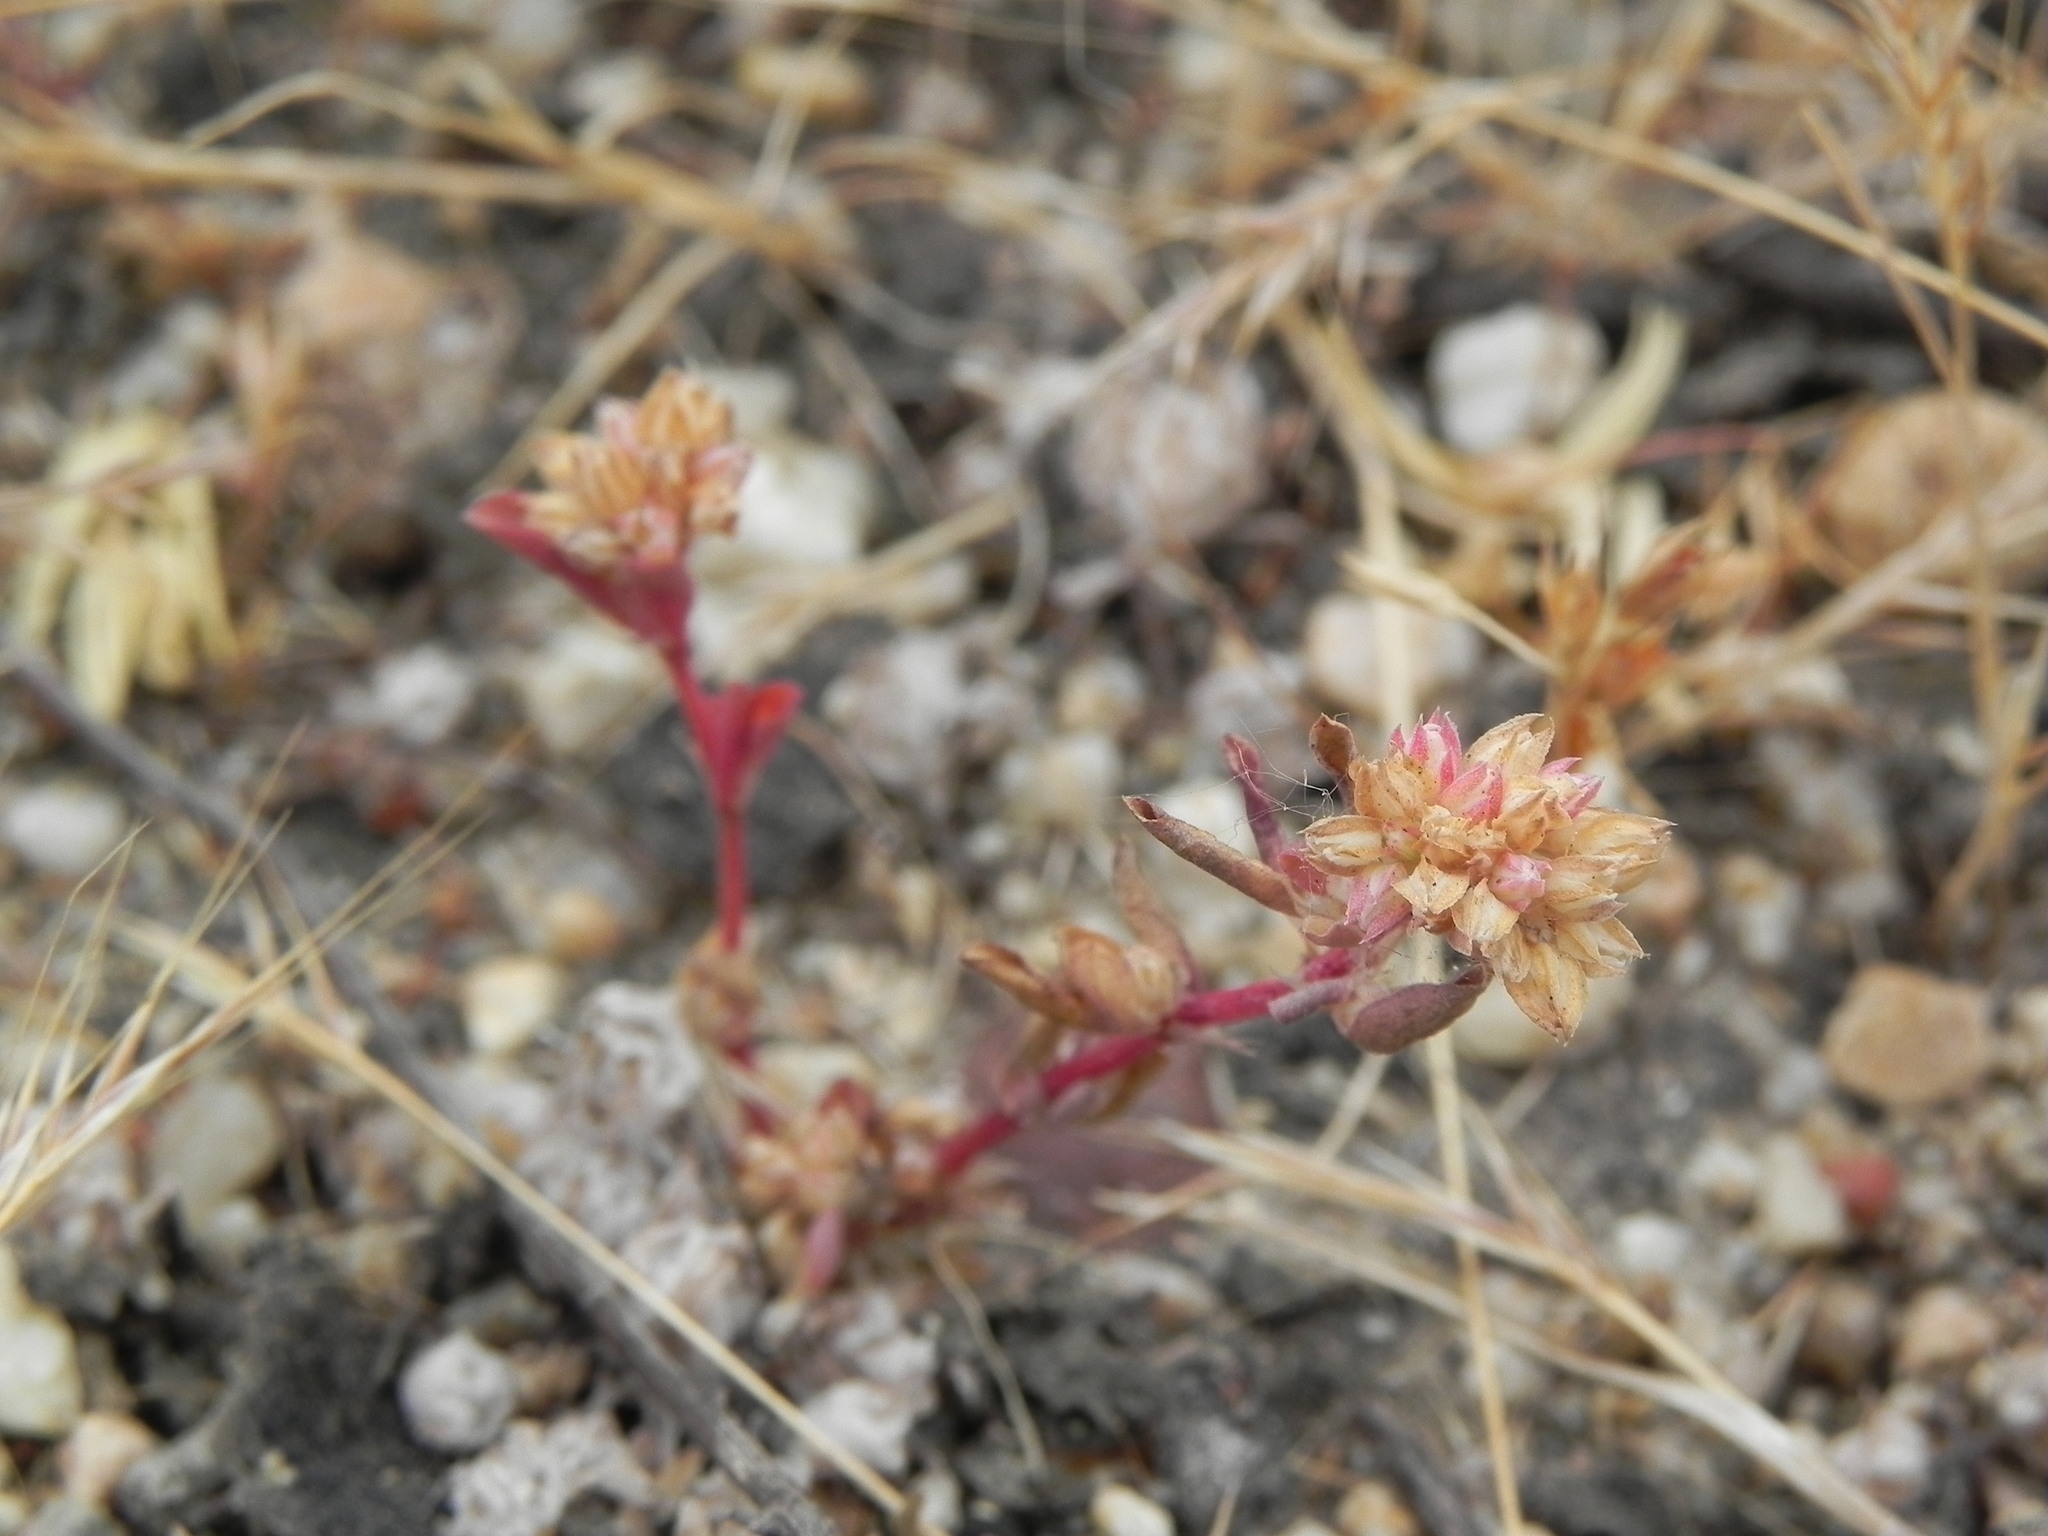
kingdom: Plantae
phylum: Tracheophyta
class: Magnoliopsida
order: Caryophyllales
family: Caryophyllaceae
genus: Polycarpon
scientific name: Polycarpon tetraphyllum
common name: Four-leaved all-seed
